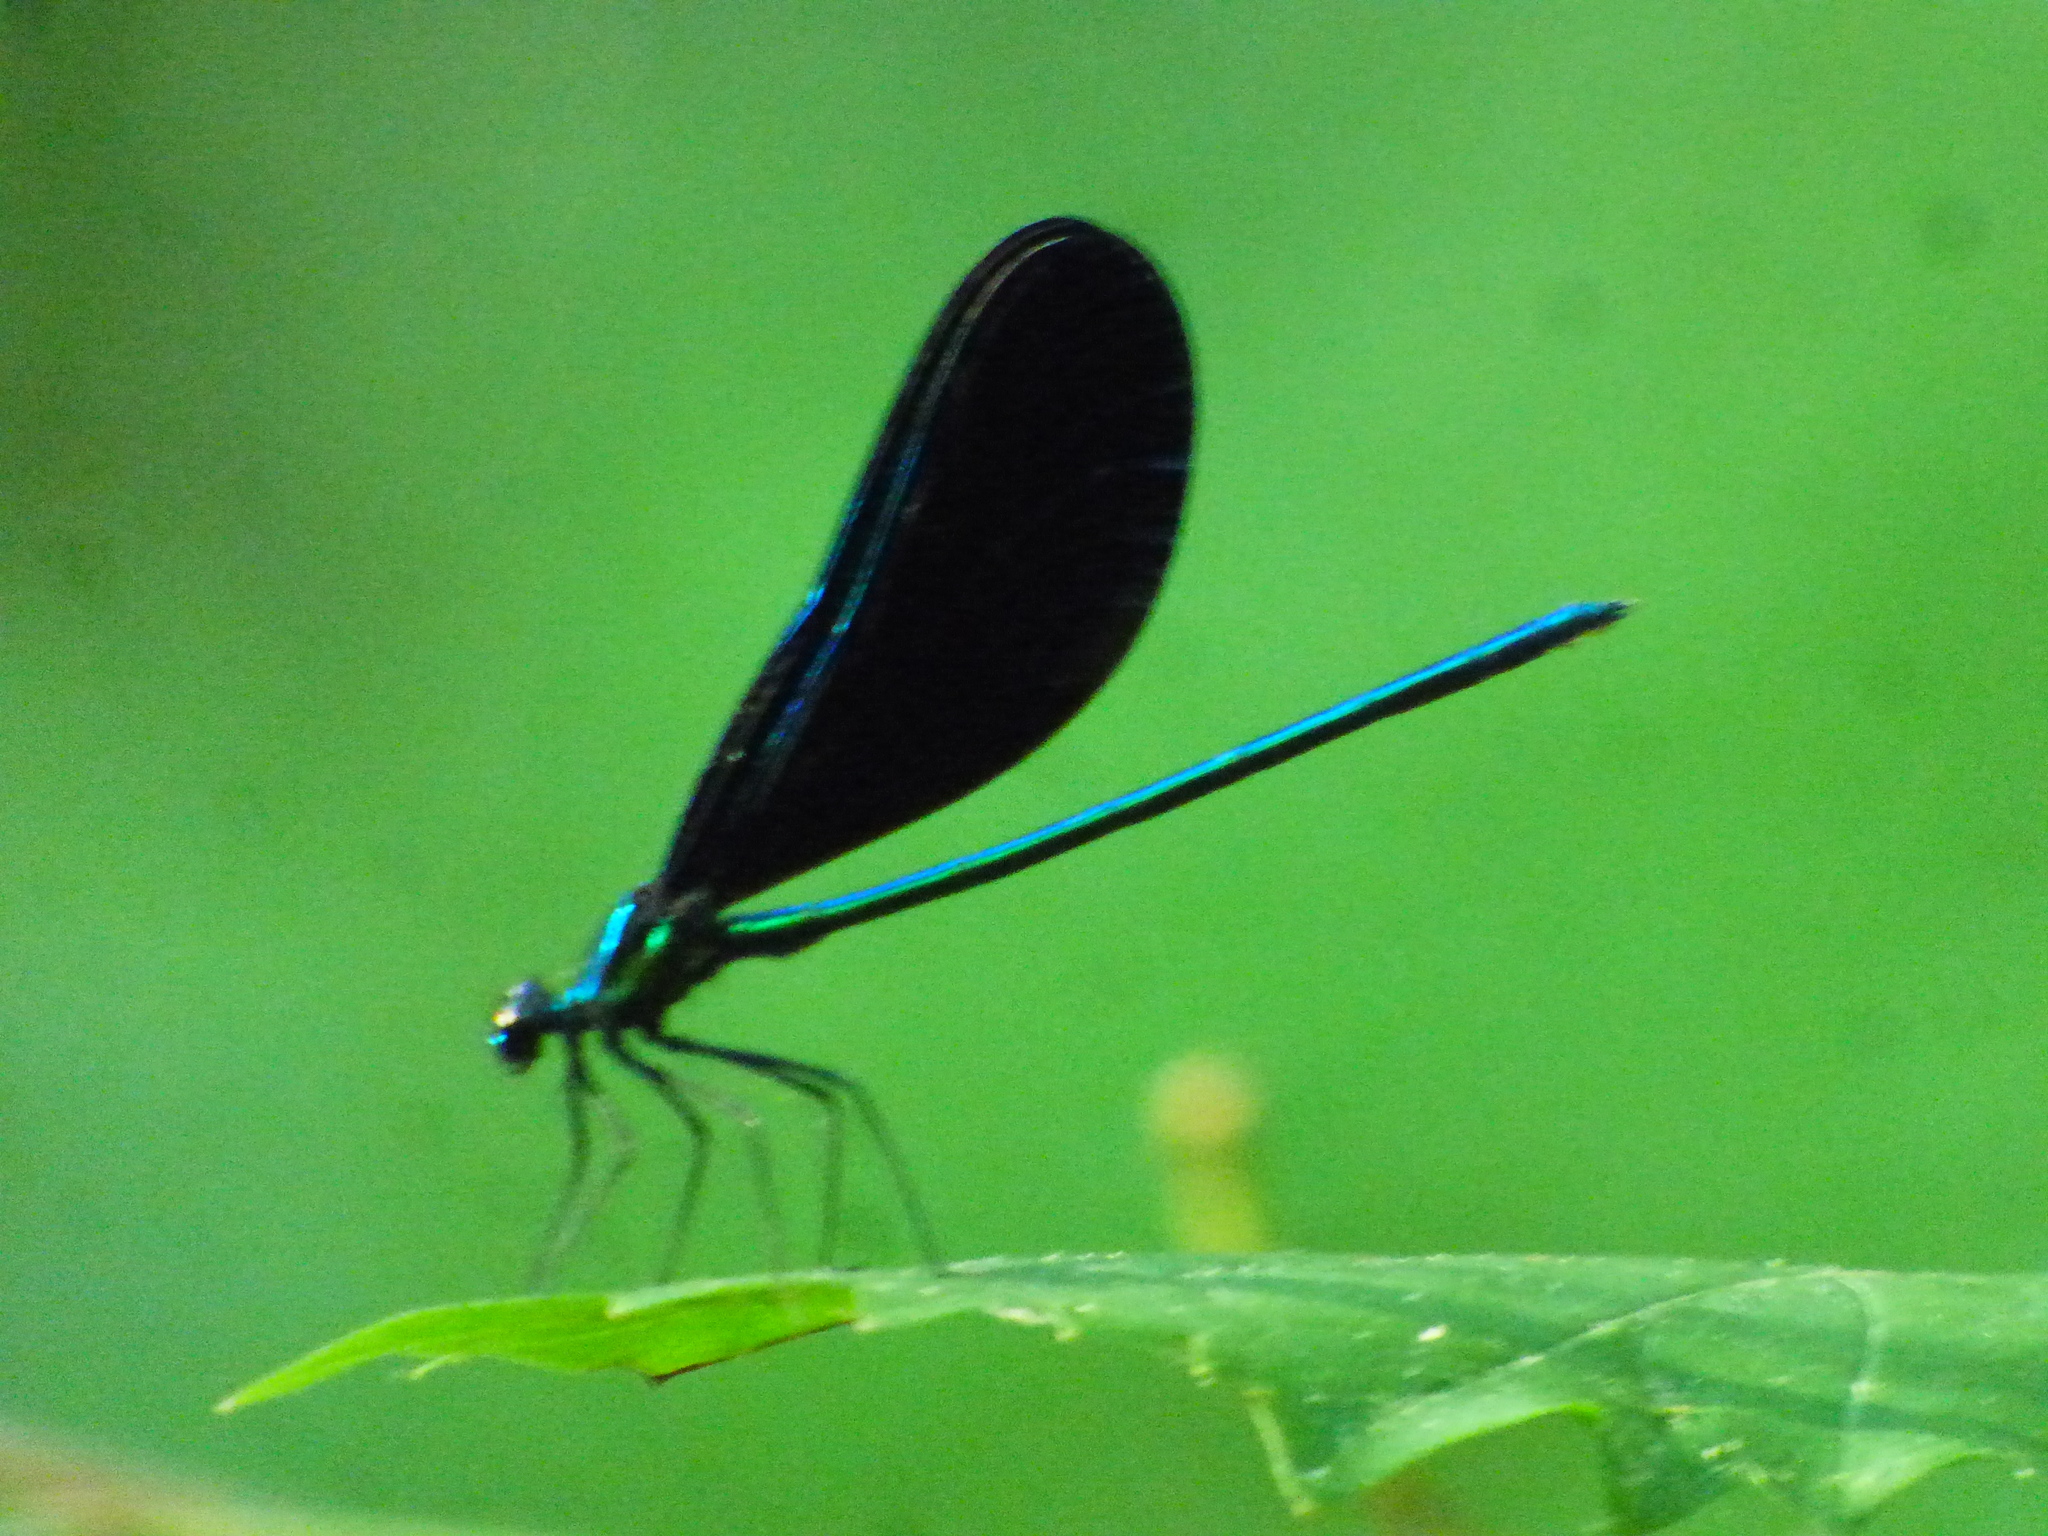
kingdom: Animalia
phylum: Arthropoda
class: Insecta
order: Odonata
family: Calopterygidae
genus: Calopteryx
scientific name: Calopteryx maculata
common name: Ebony jewelwing
